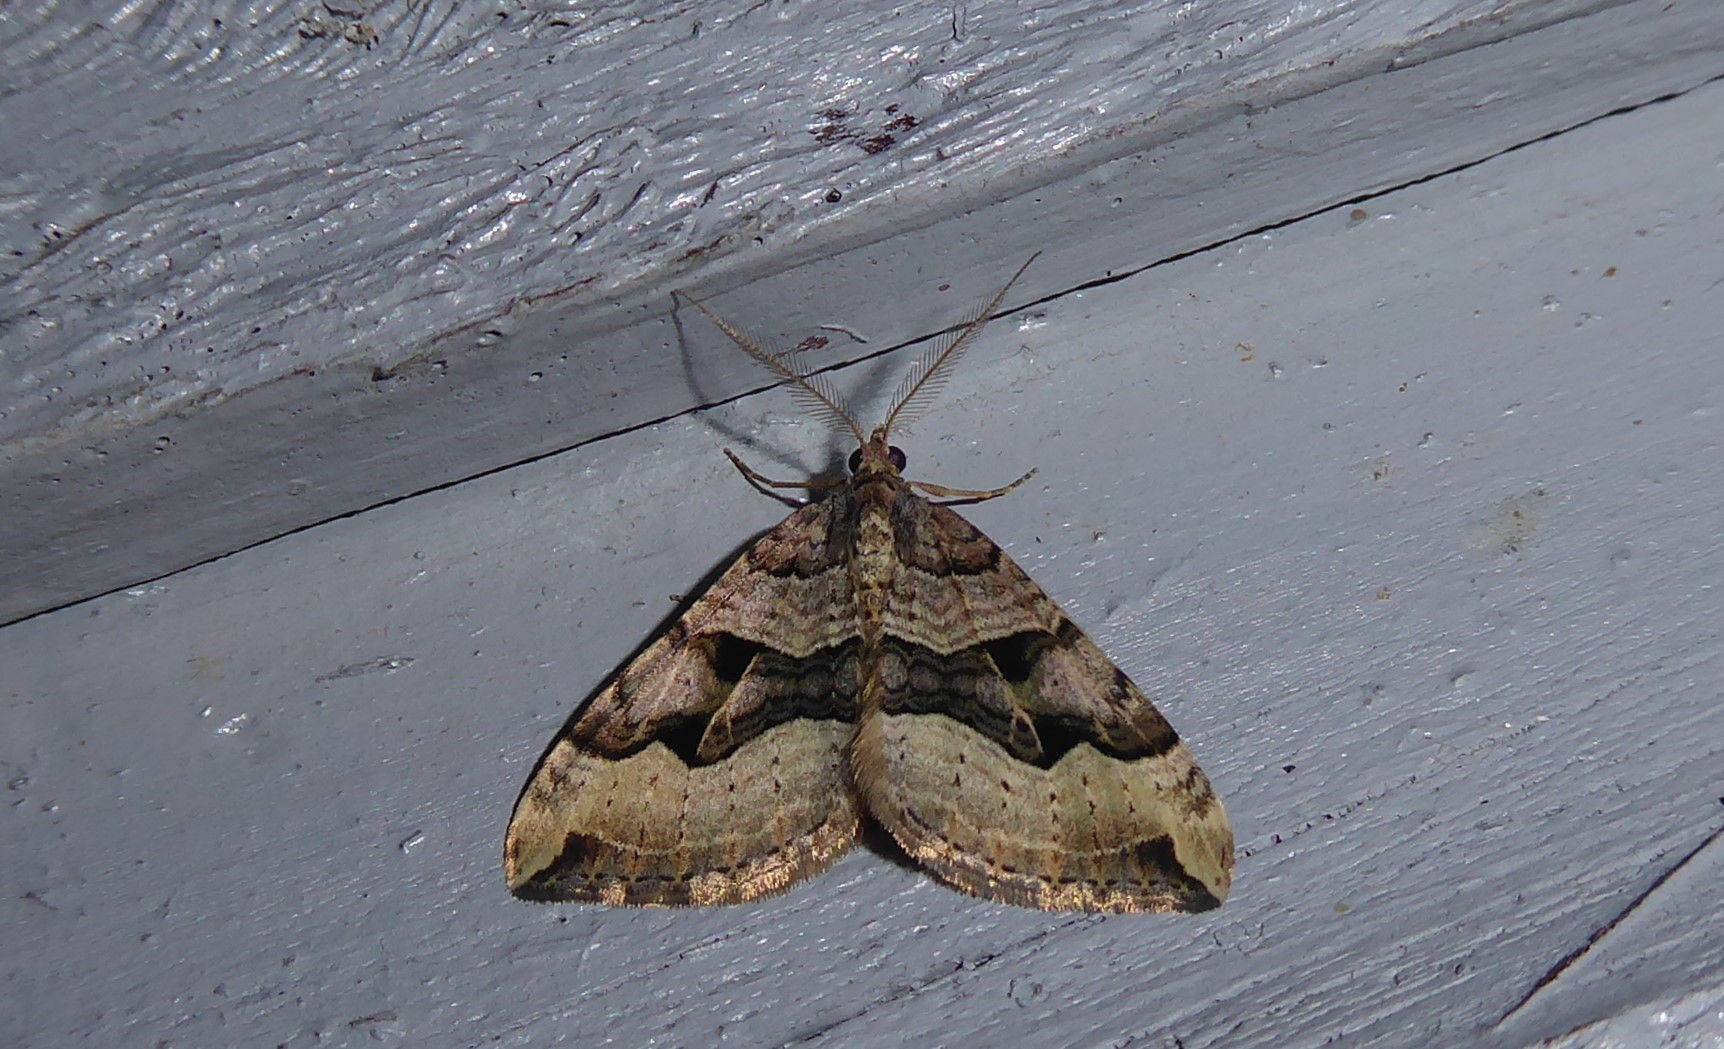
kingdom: Animalia
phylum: Arthropoda
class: Insecta
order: Lepidoptera
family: Geometridae
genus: Xanthorhoe
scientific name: Xanthorhoe semifissata
